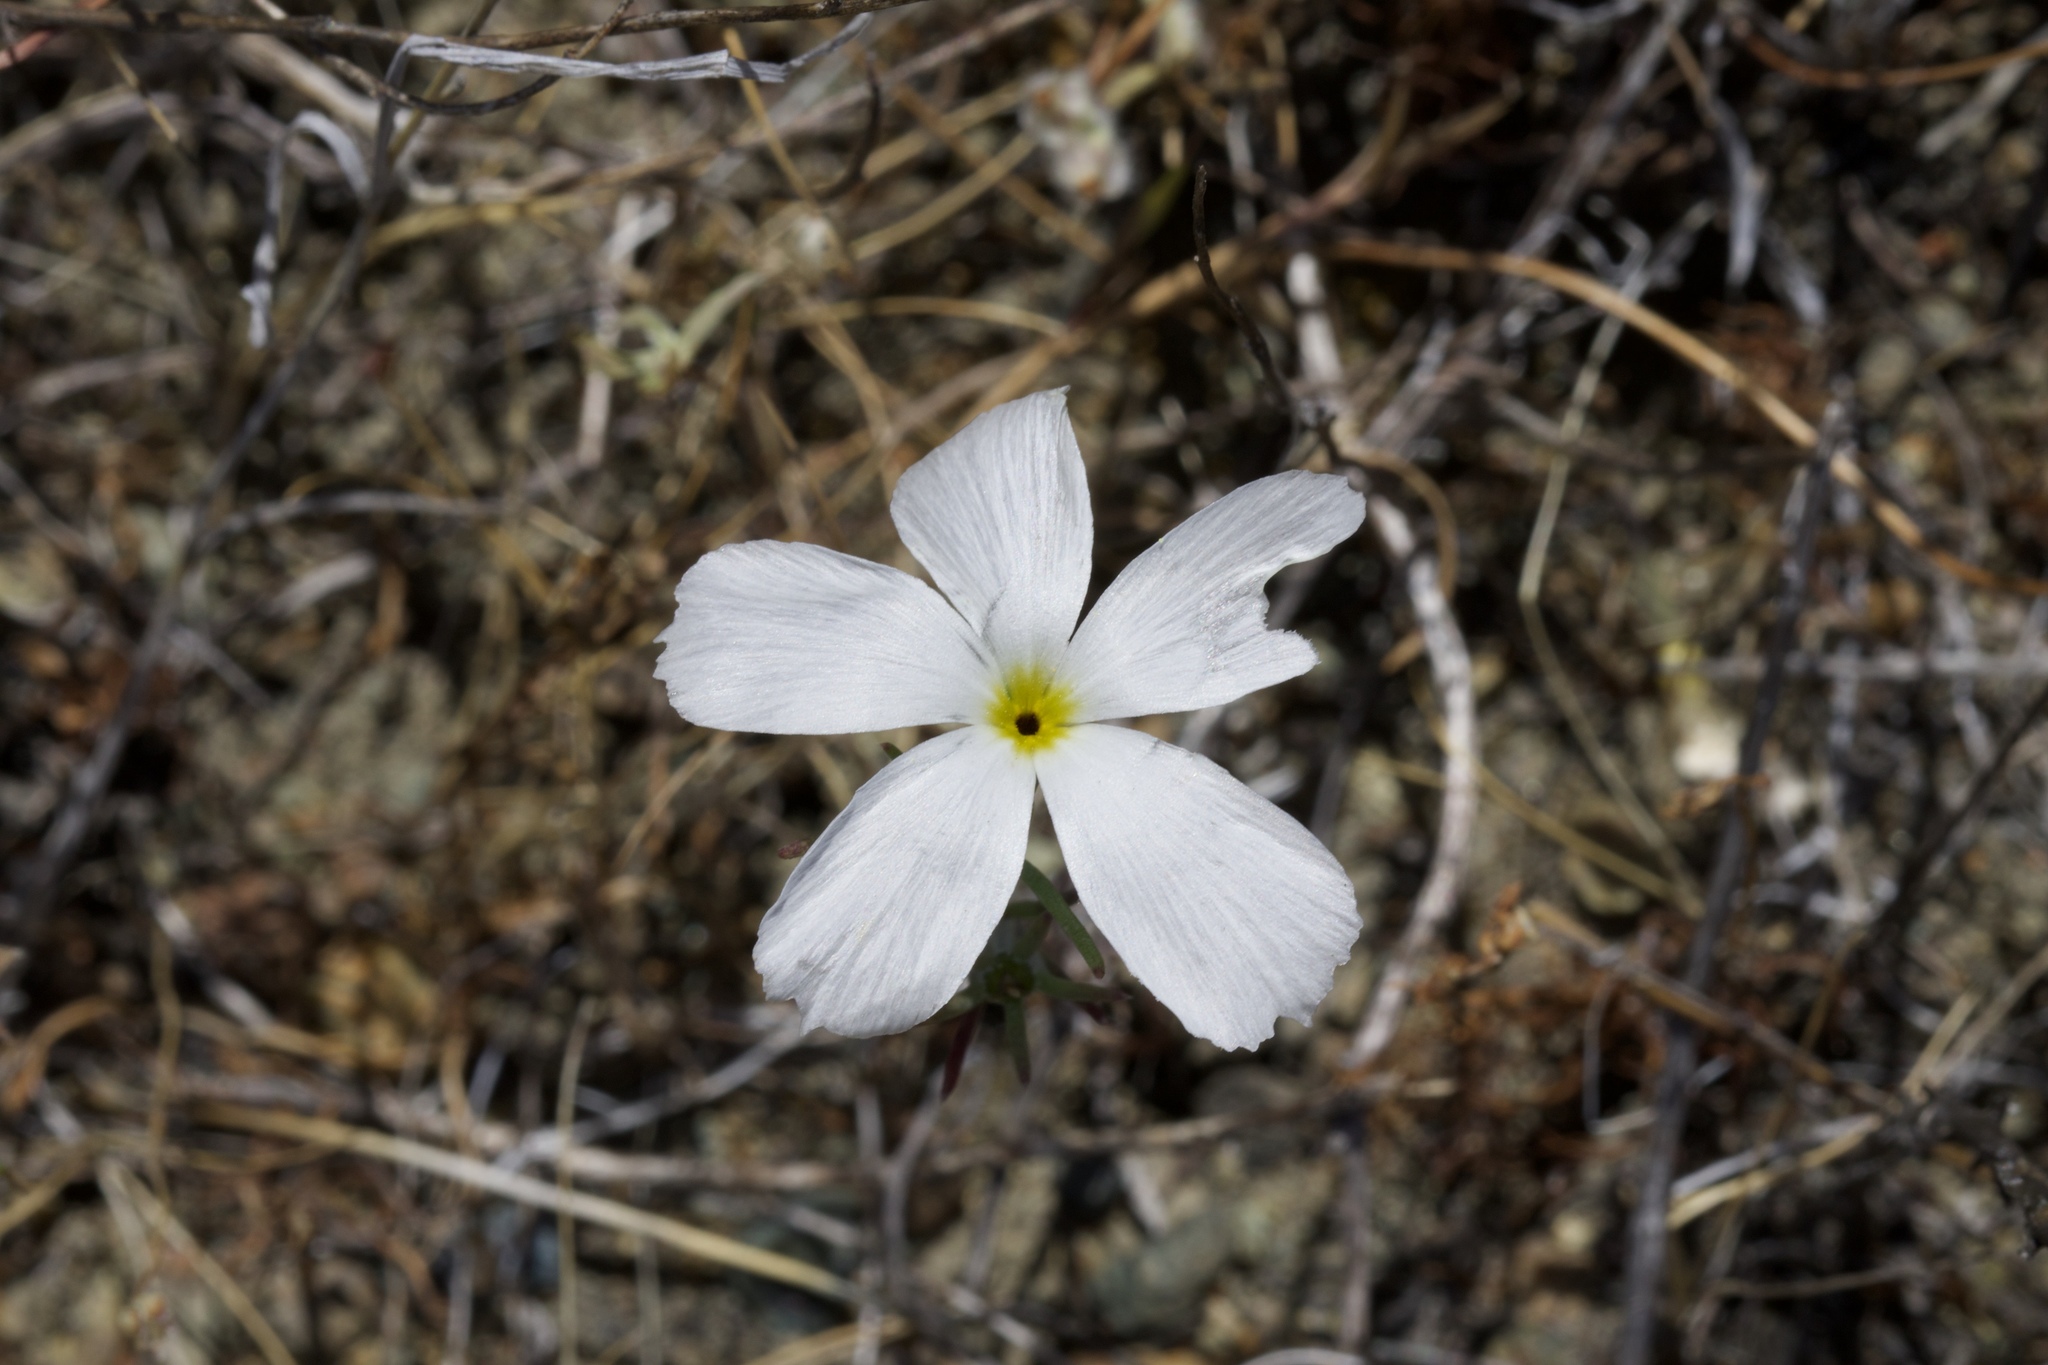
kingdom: Plantae
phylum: Tracheophyta
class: Magnoliopsida
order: Ericales
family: Polemoniaceae
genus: Linanthus
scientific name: Linanthus dichotomus
